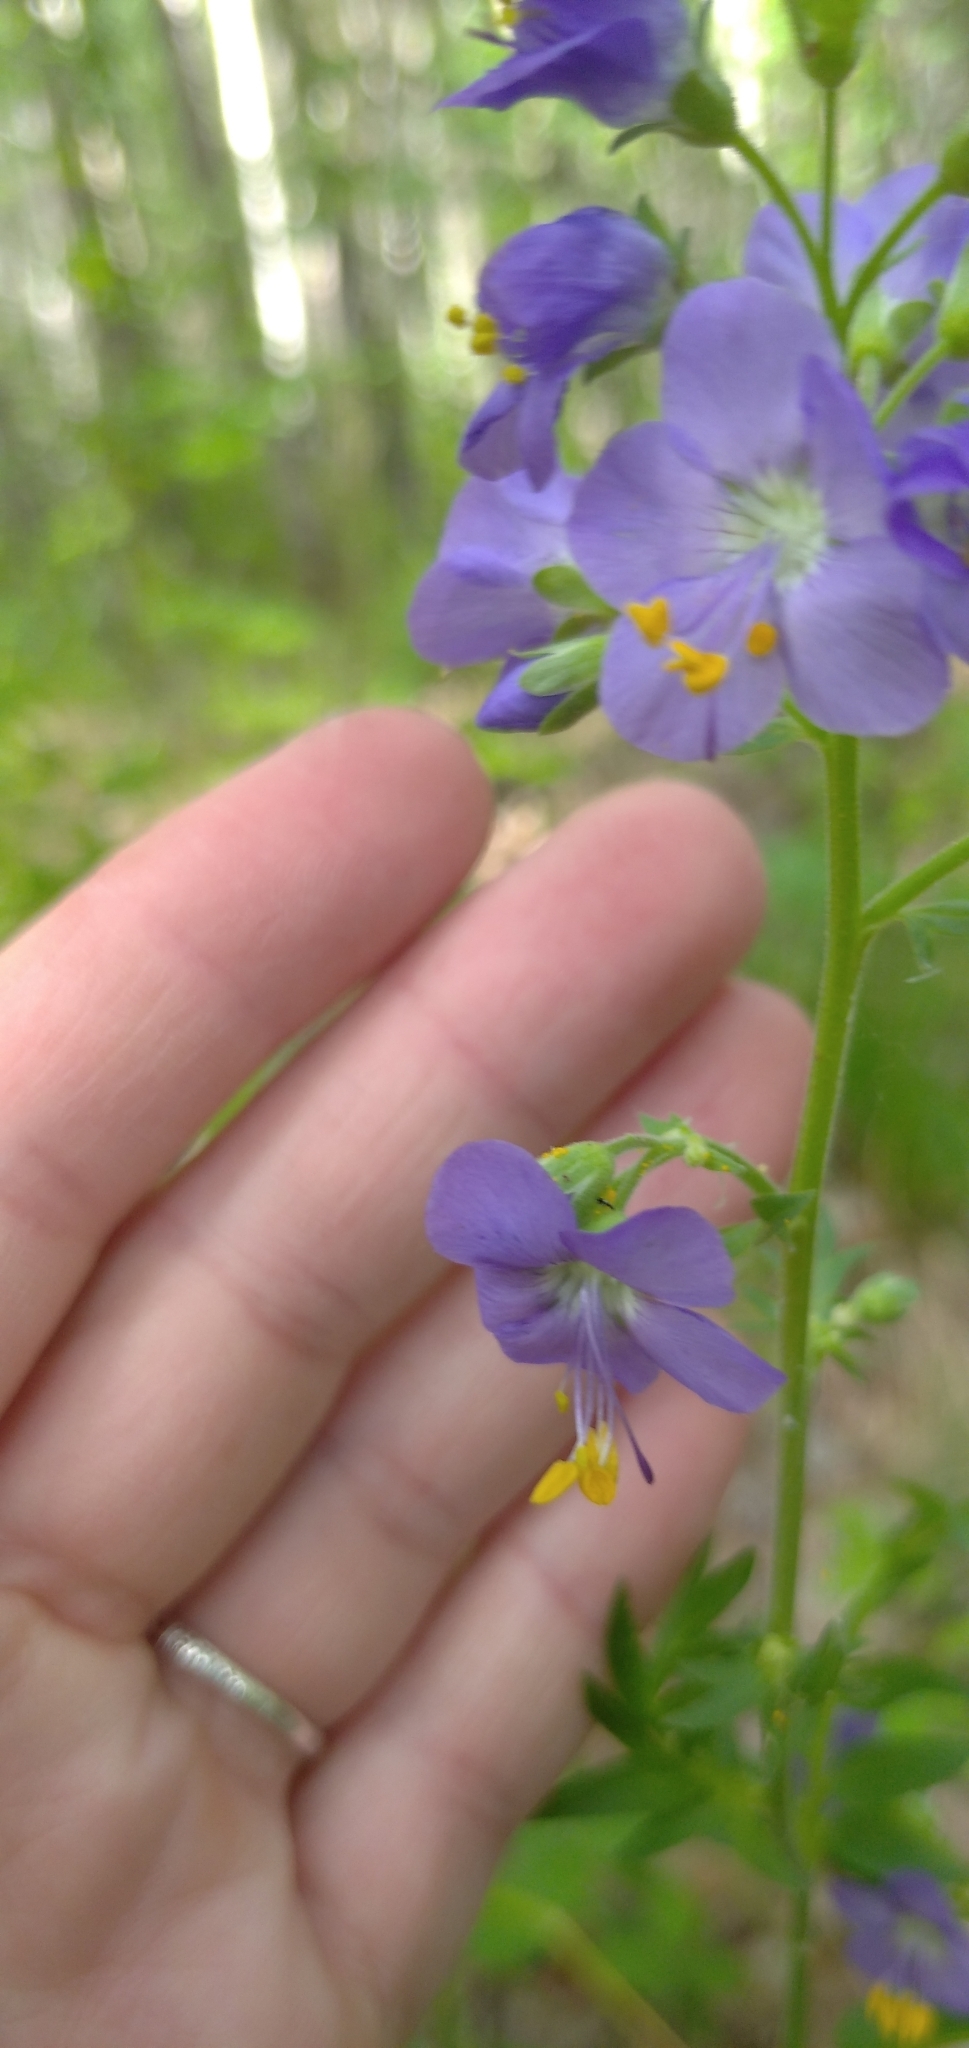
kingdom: Plantae
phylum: Tracheophyta
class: Magnoliopsida
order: Ericales
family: Polemoniaceae
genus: Polemonium
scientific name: Polemonium caeruleum
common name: Jacob's-ladder
